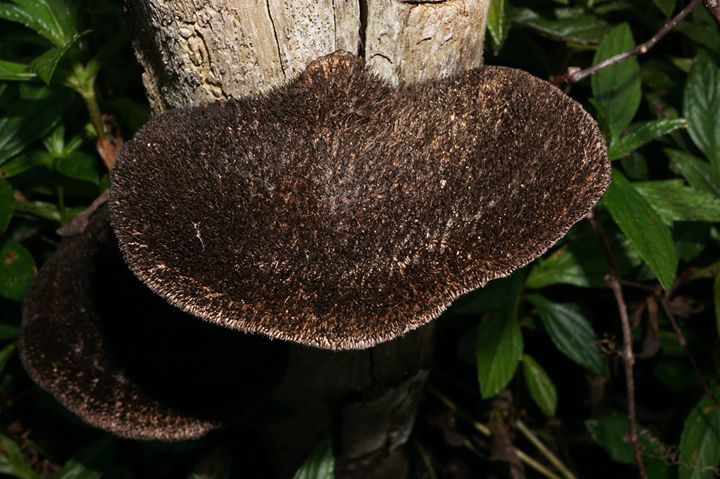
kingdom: Fungi
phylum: Basidiomycota
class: Agaricomycetes
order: Polyporales
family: Cerrenaceae
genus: Cerrena
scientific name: Cerrena hydnoides
